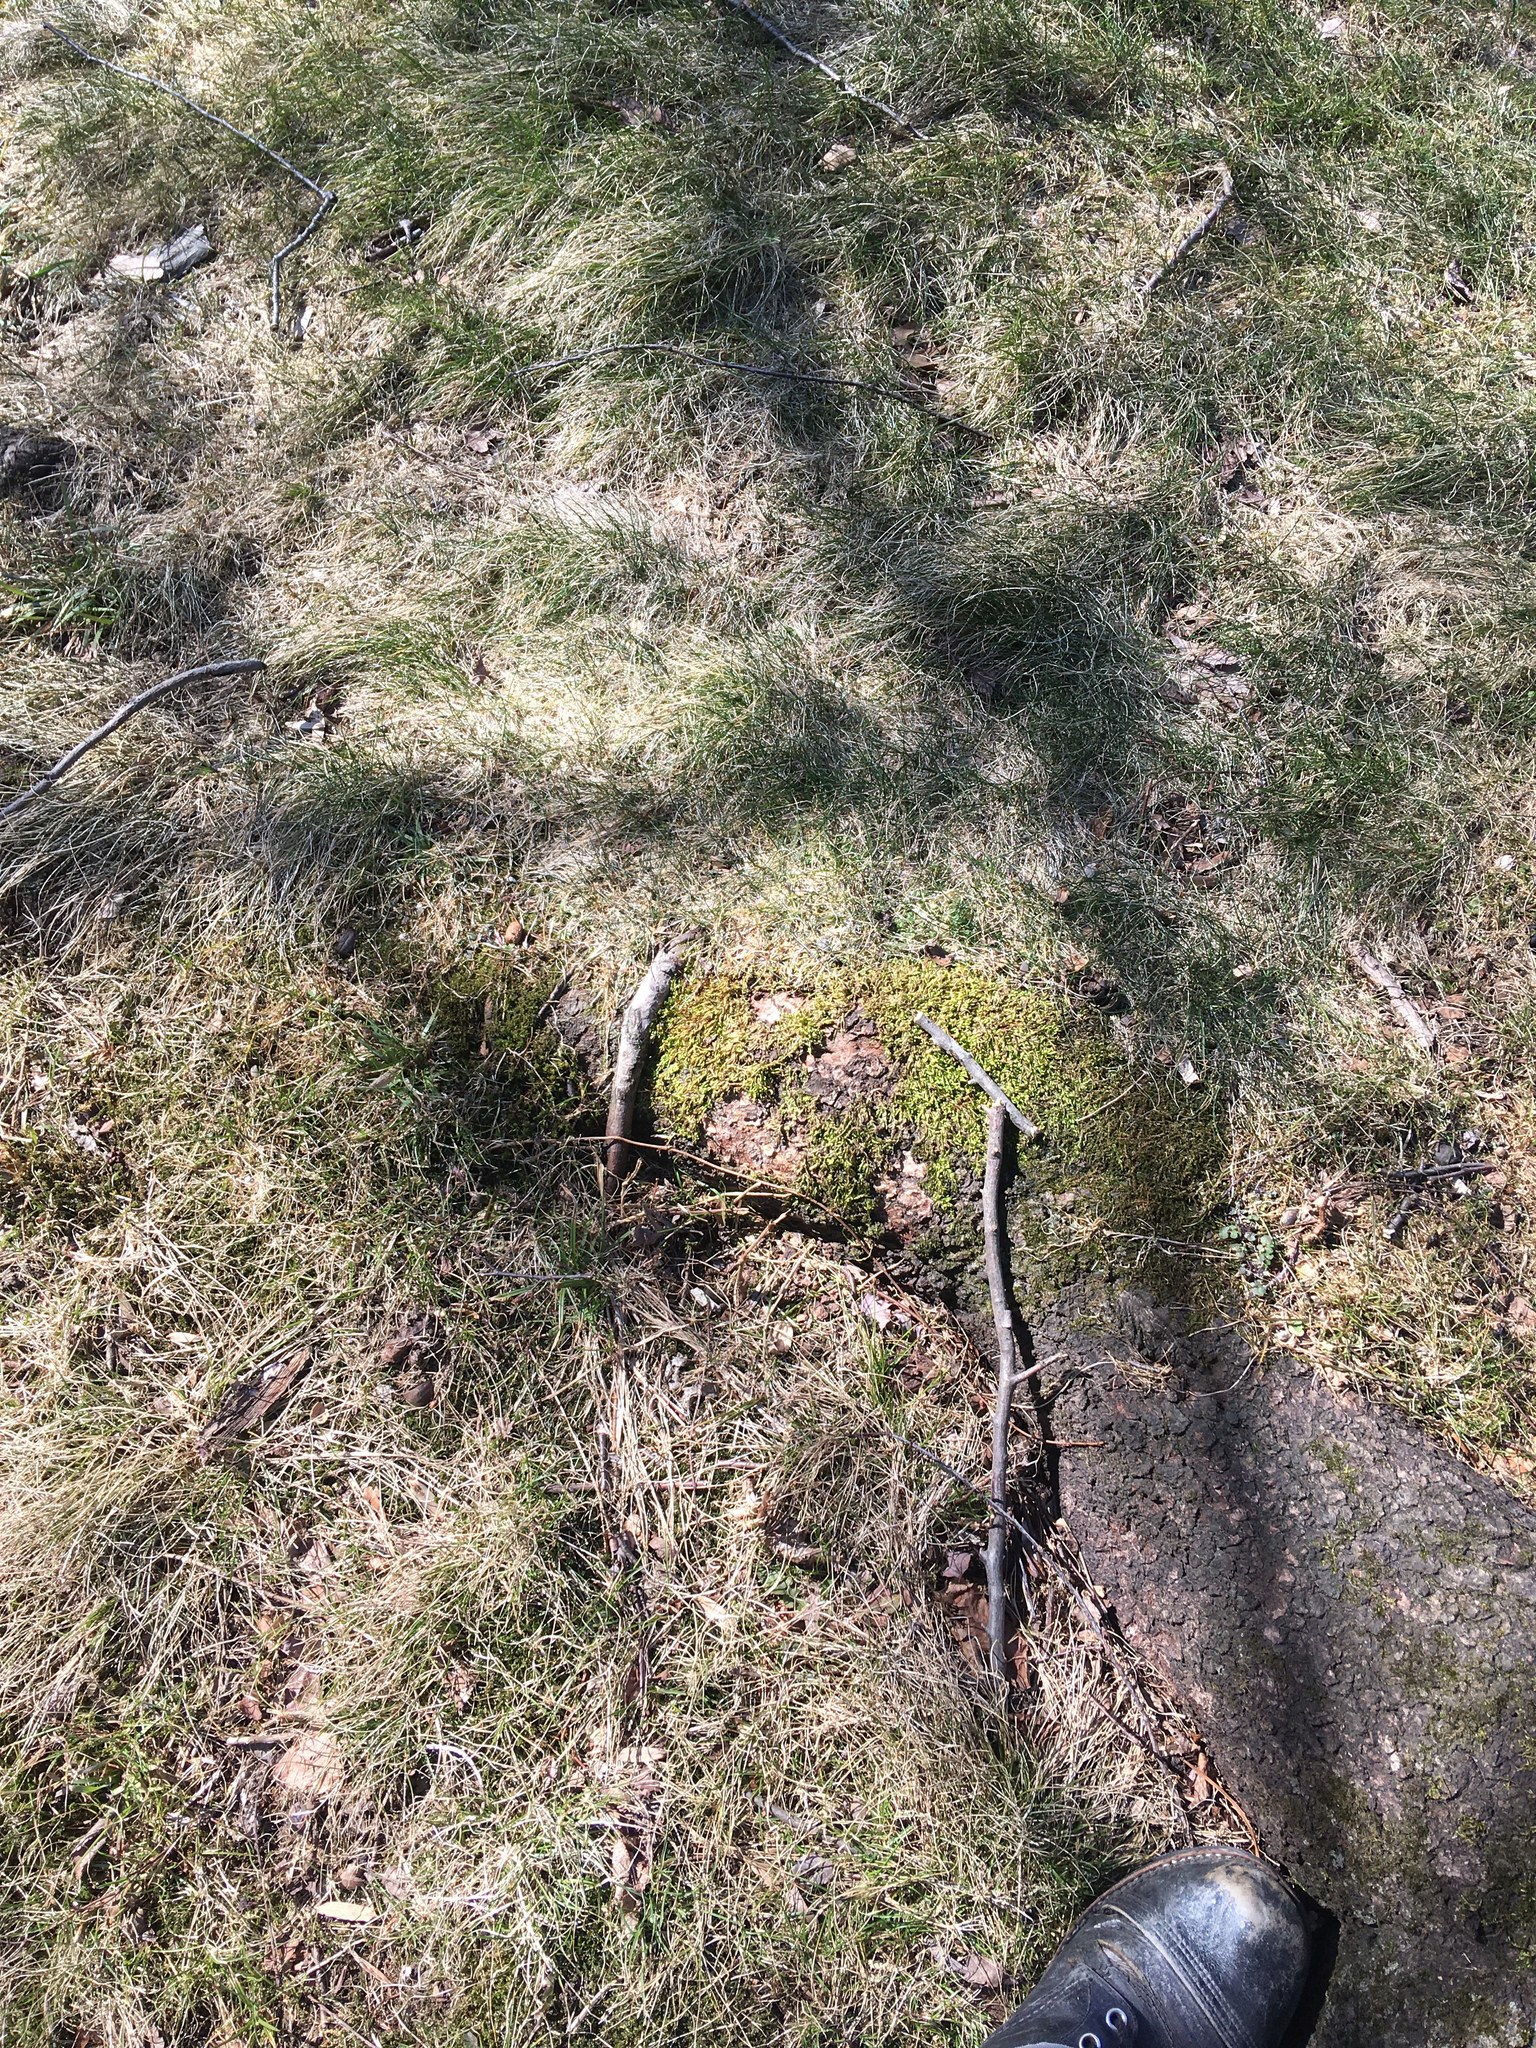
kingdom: Plantae
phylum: Bryophyta
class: Bryopsida
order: Hypnales
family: Entodontaceae
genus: Entodon
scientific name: Entodon seductrix
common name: Round-stemmed entodon moss
